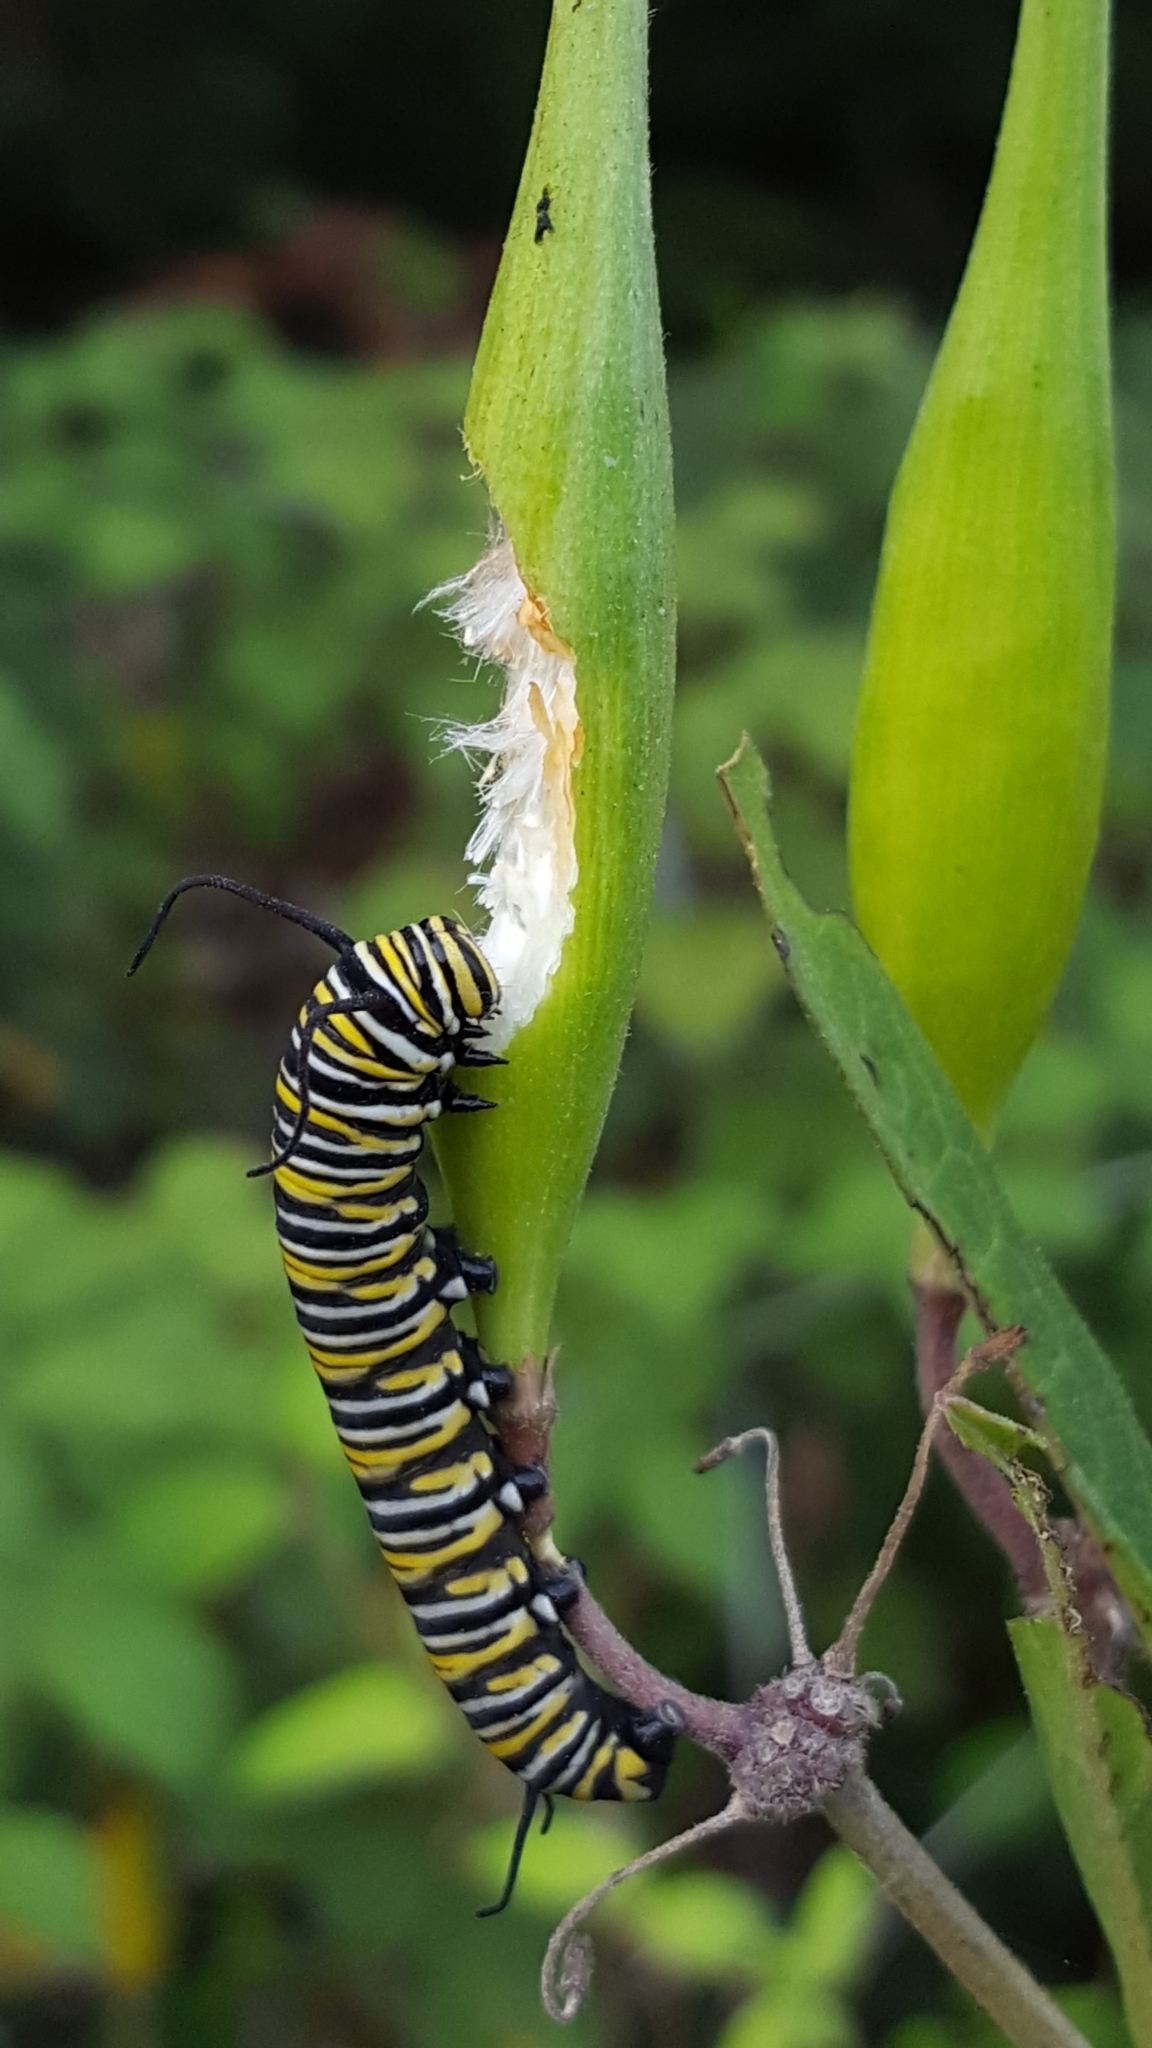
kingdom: Animalia
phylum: Arthropoda
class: Insecta
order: Lepidoptera
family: Nymphalidae
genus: Danaus
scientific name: Danaus plexippus
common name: Monarch
